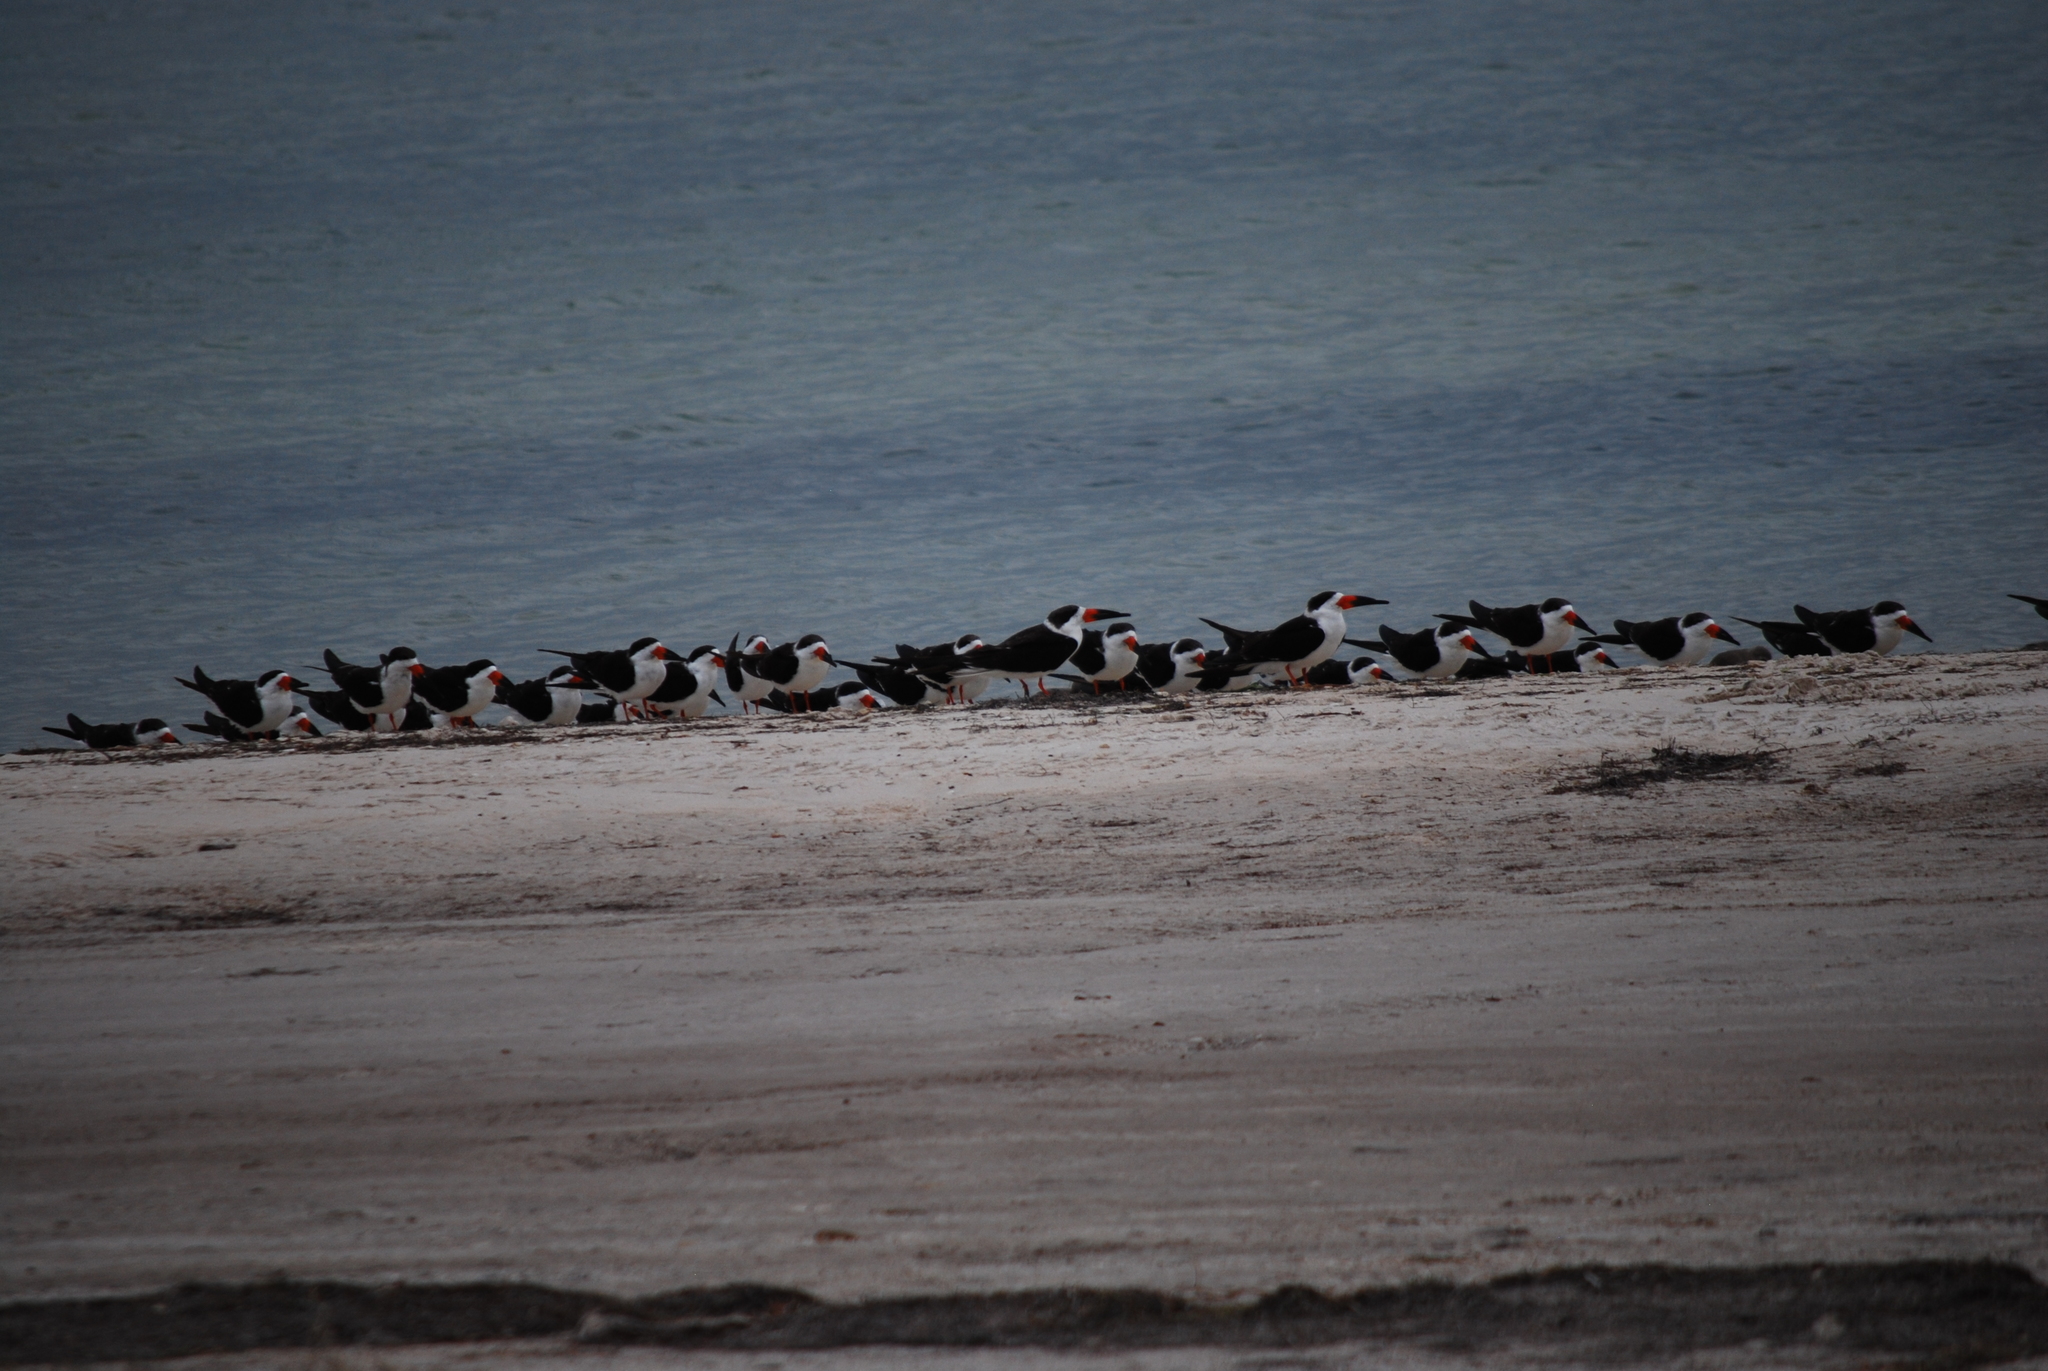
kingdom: Animalia
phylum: Chordata
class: Aves
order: Charadriiformes
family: Laridae
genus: Rynchops
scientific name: Rynchops niger
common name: Black skimmer
